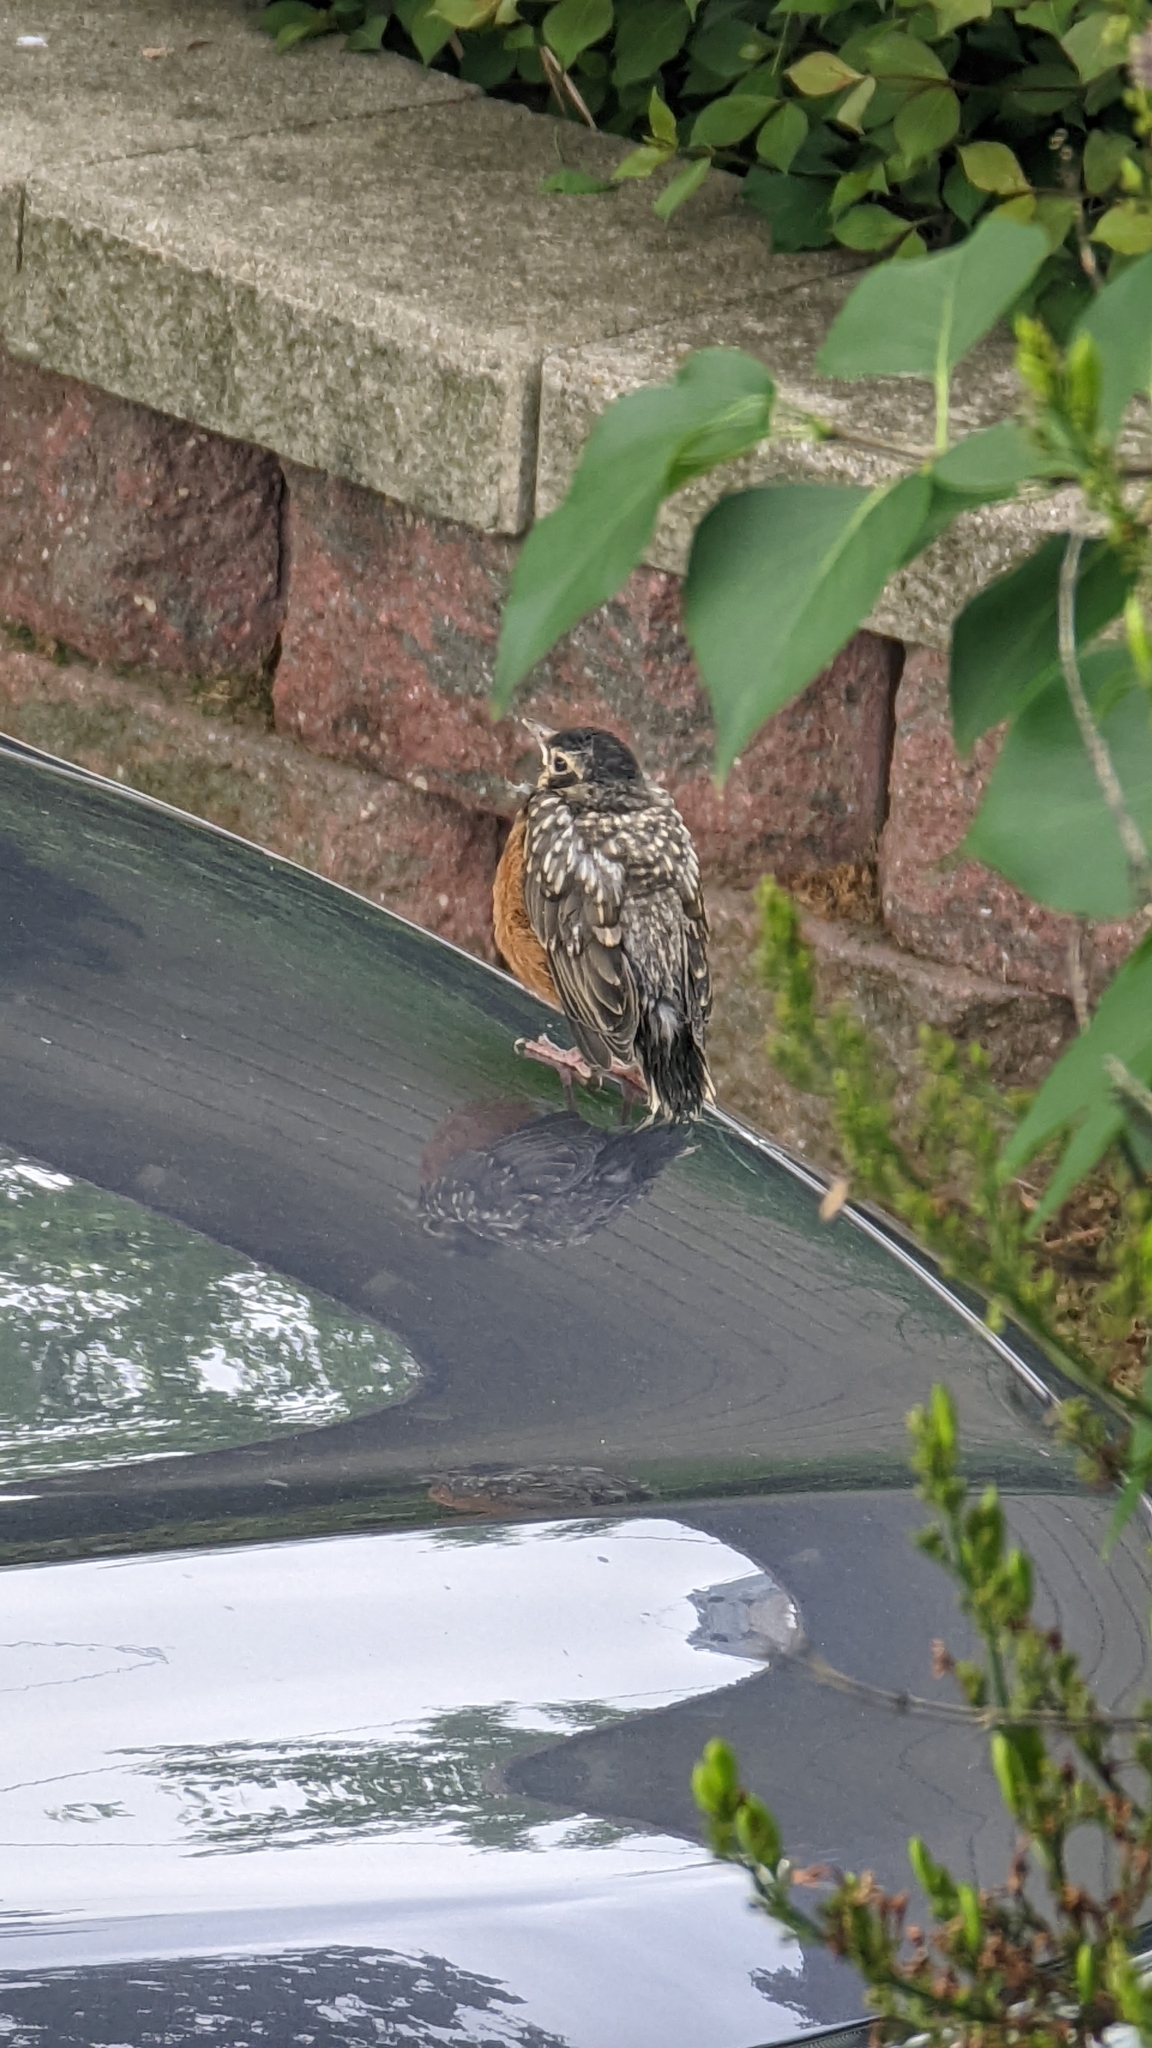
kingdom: Animalia
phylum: Chordata
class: Aves
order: Passeriformes
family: Turdidae
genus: Turdus
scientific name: Turdus migratorius
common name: American robin
